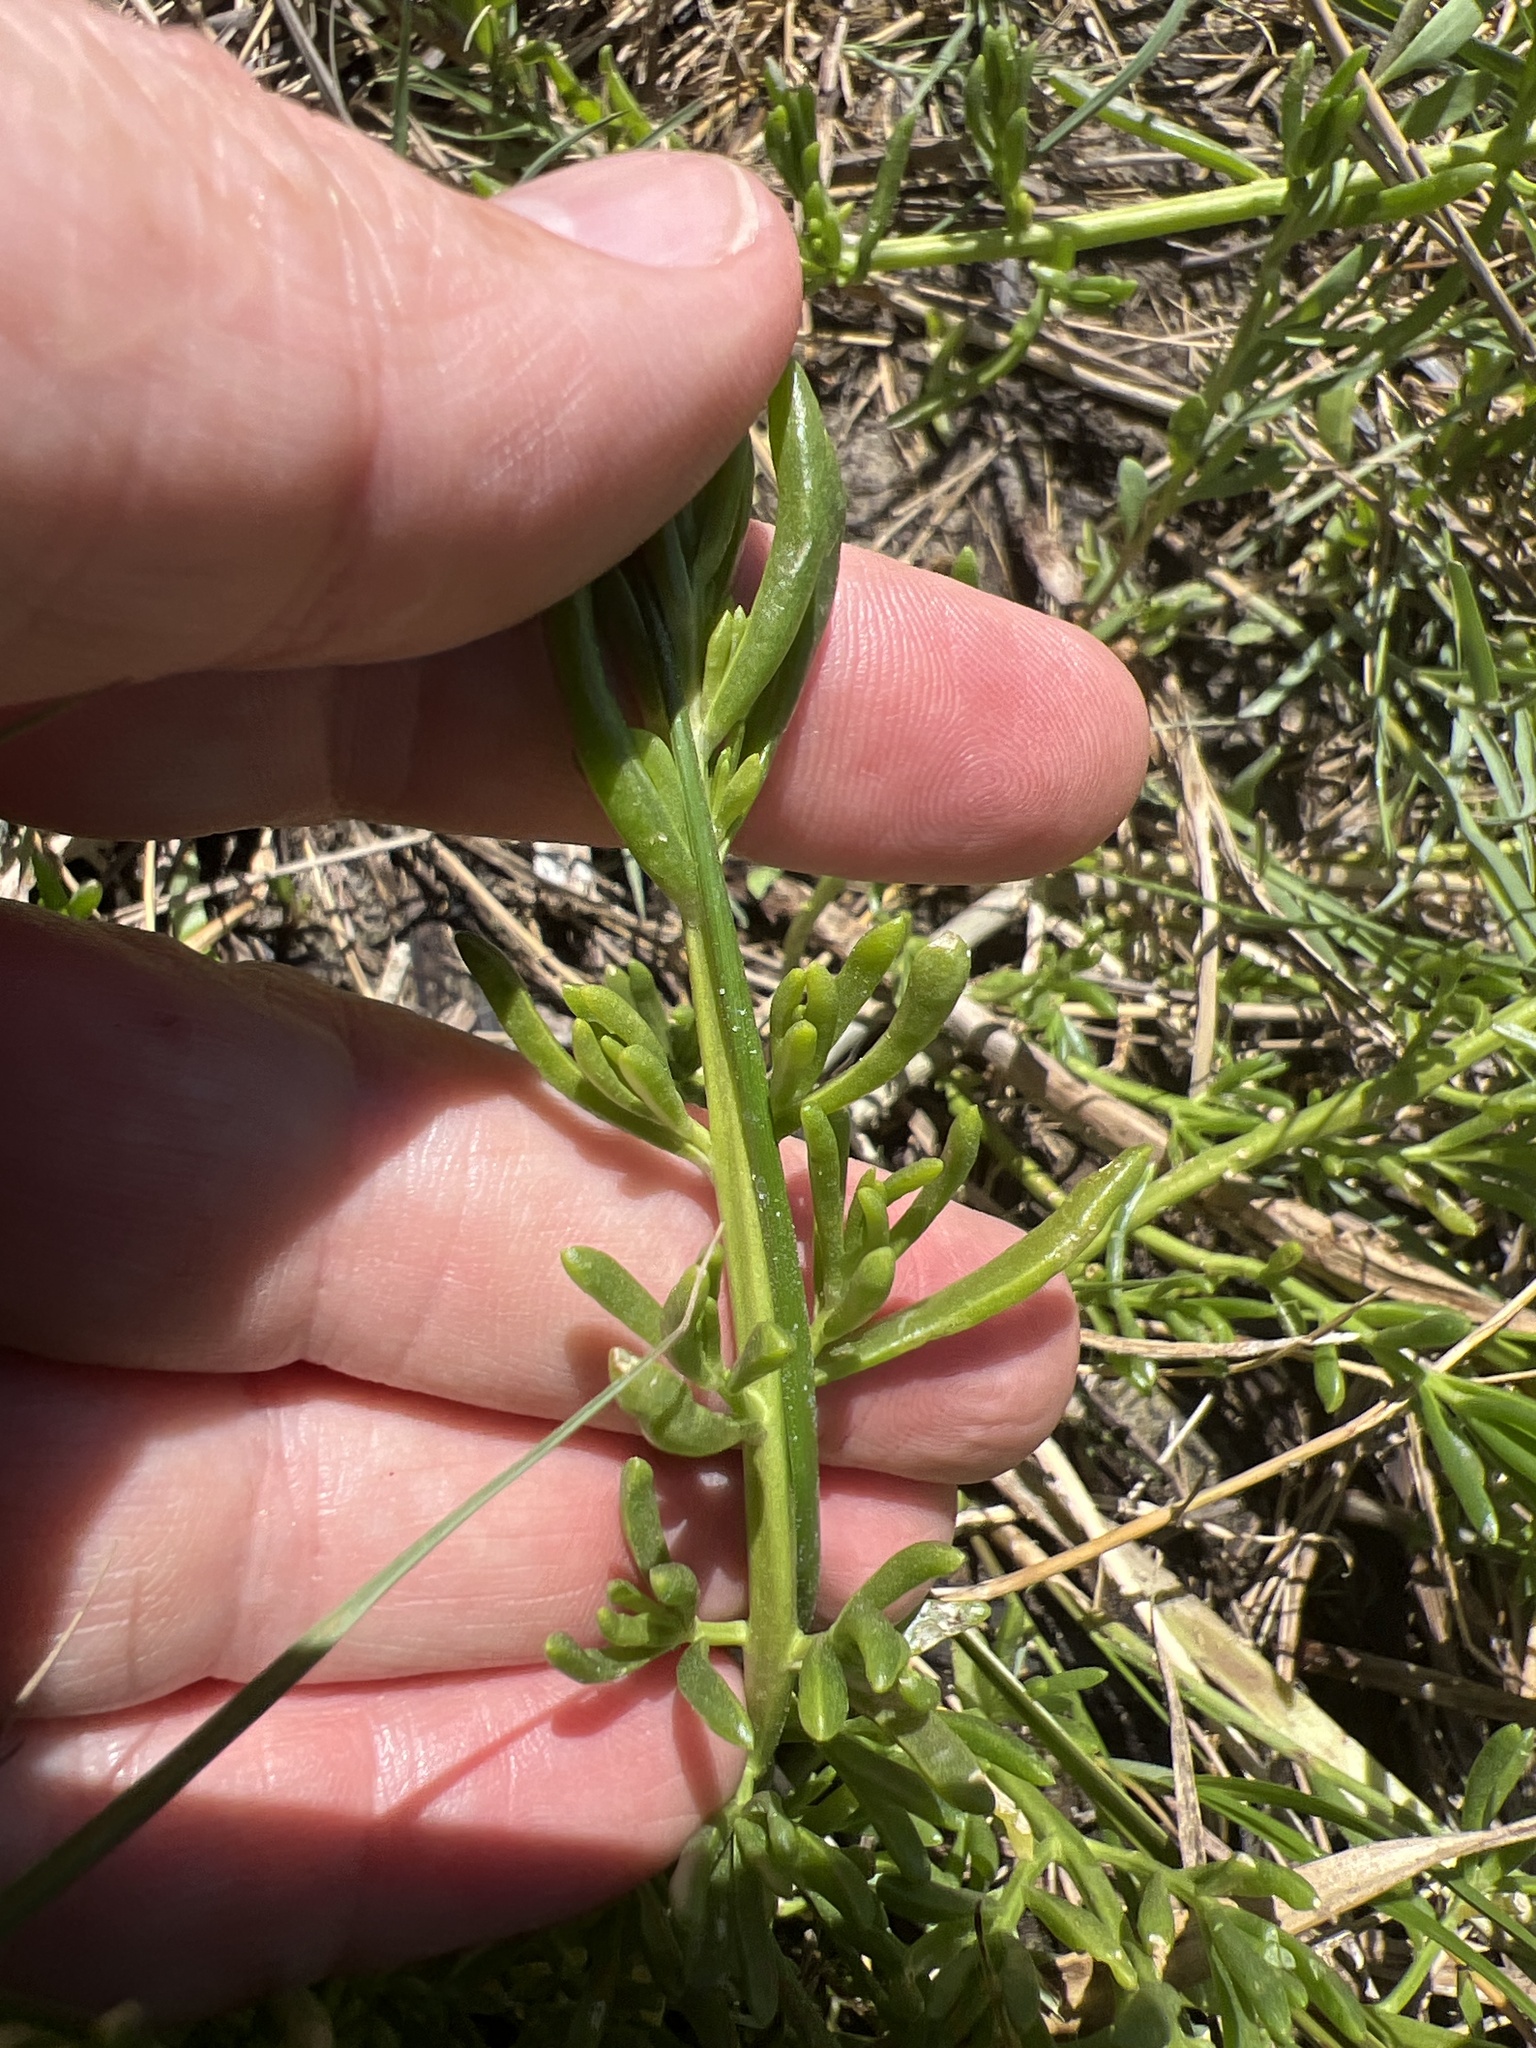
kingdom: Plantae
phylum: Tracheophyta
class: Magnoliopsida
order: Brassicales
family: Bataceae
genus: Batis
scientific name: Batis maritima
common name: Turtleweed
